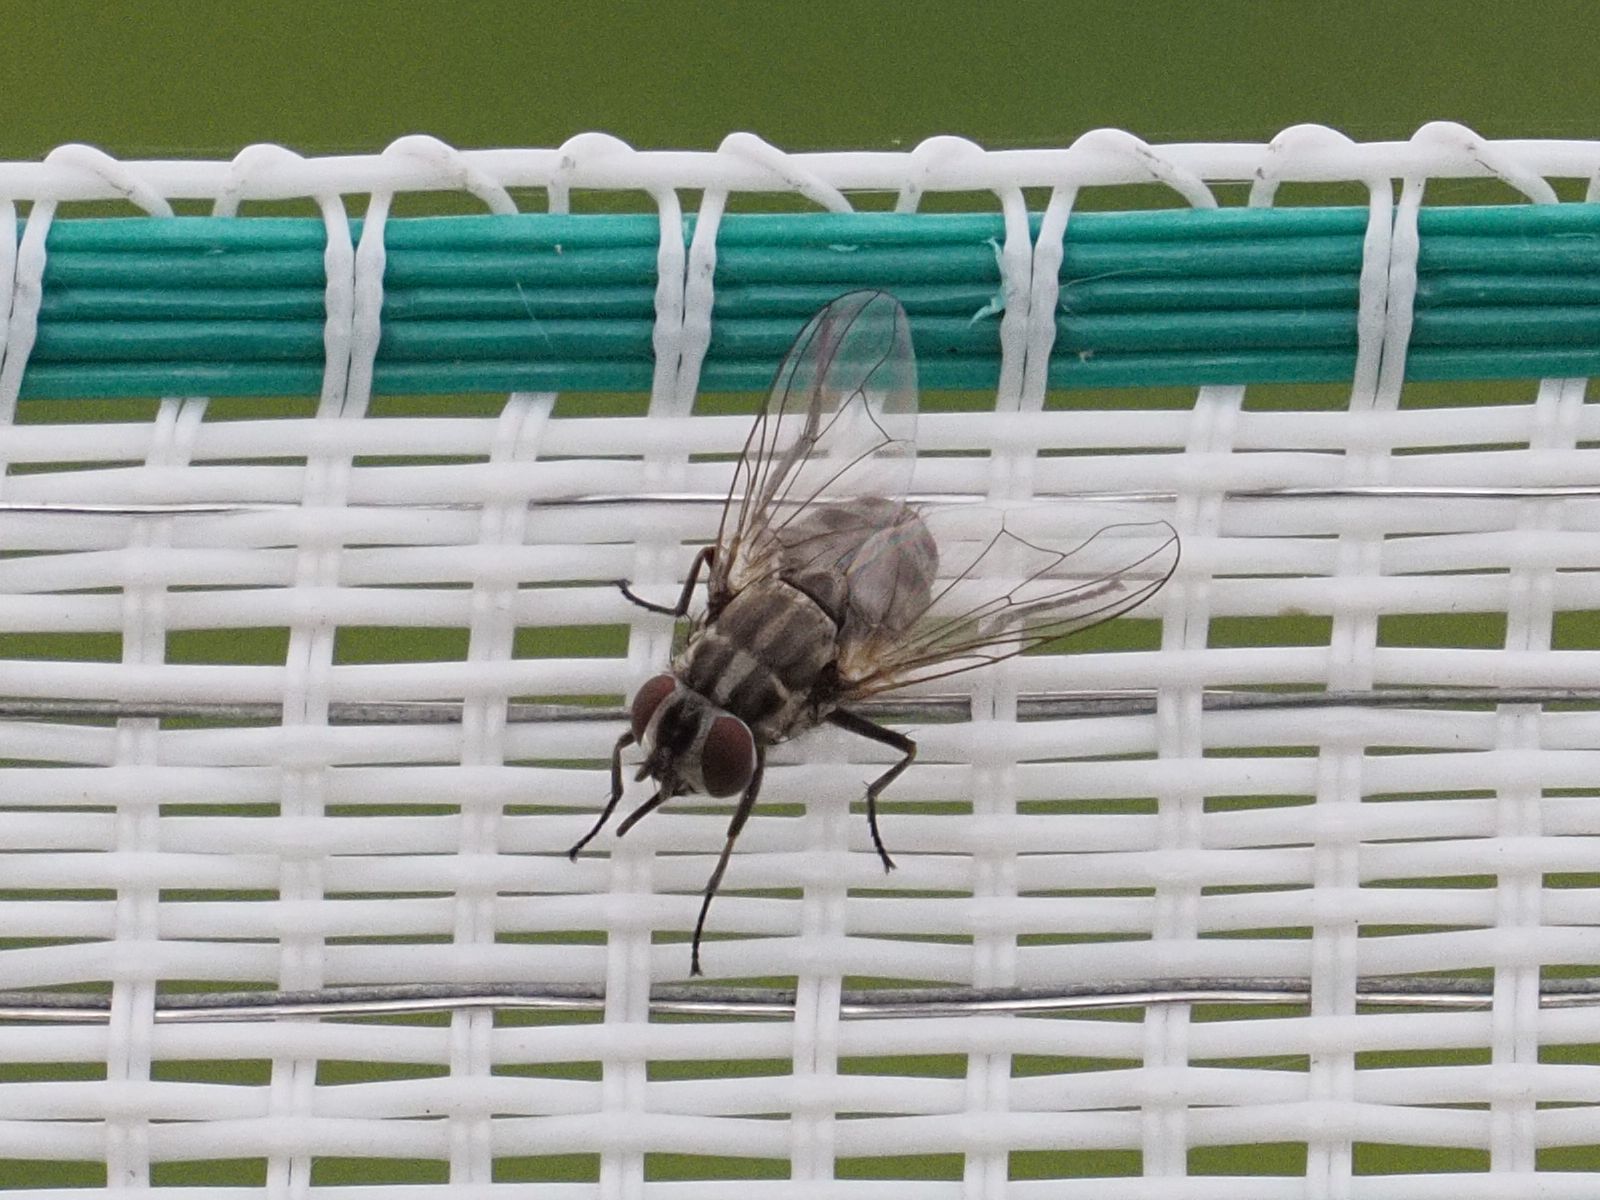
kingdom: Animalia
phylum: Arthropoda
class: Insecta
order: Diptera
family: Muscidae
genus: Stomoxys
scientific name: Stomoxys calcitrans
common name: Stable fly
